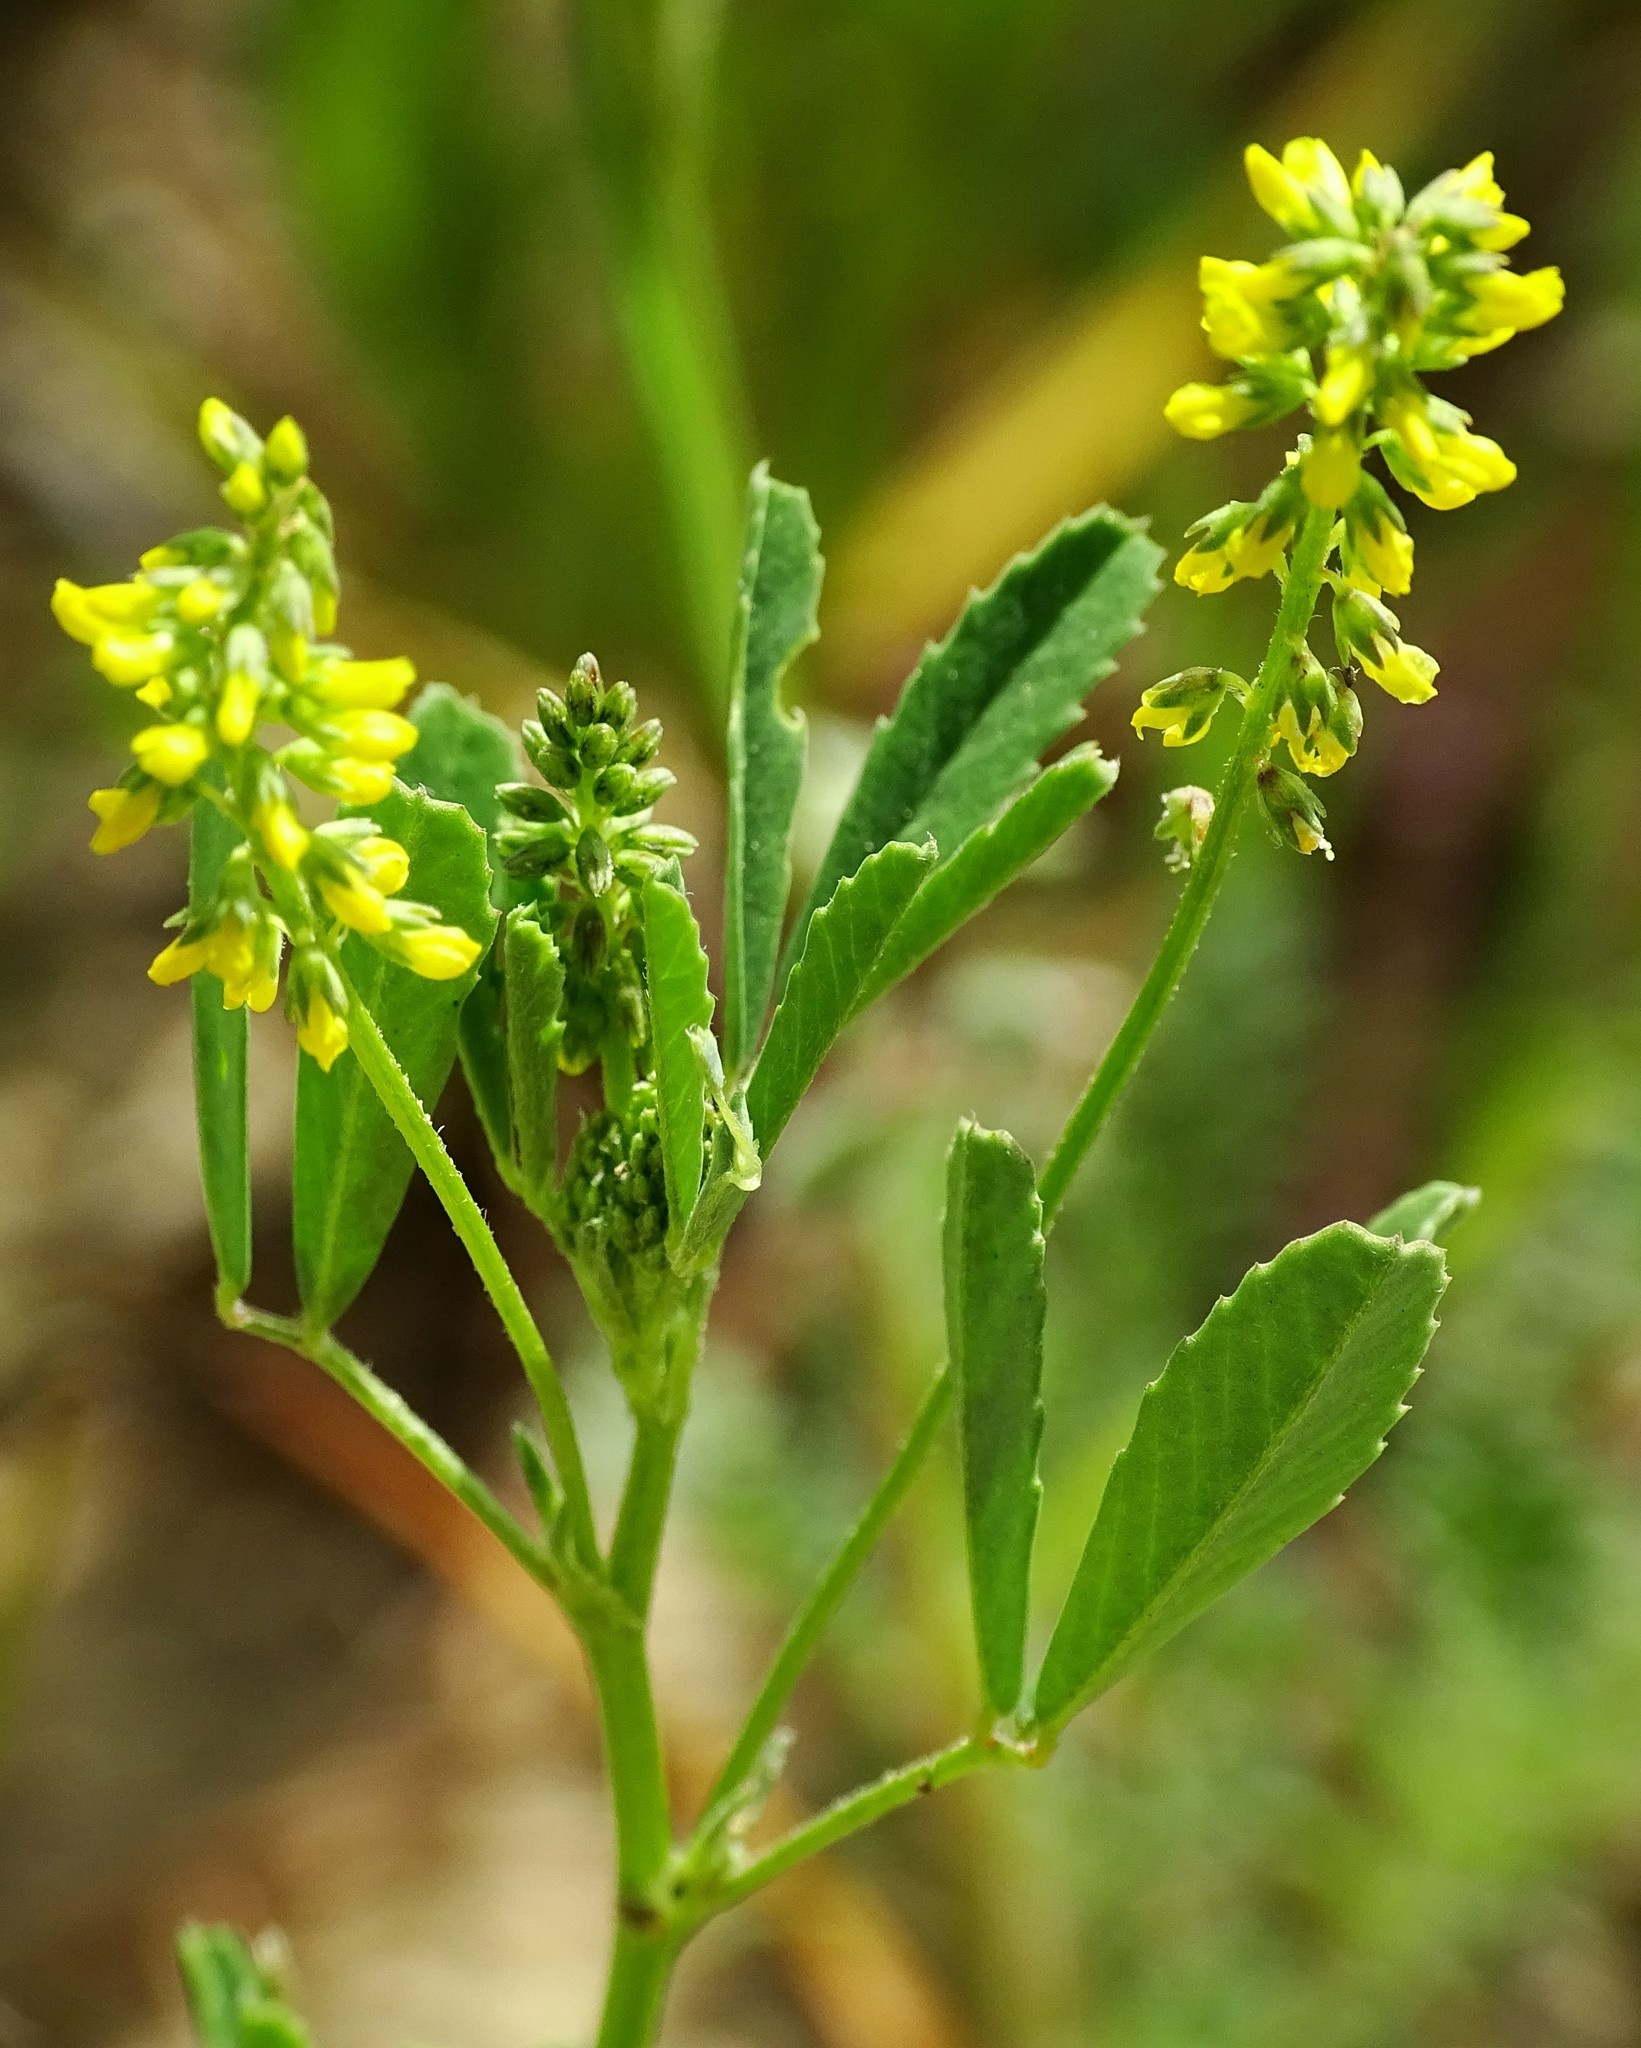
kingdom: Plantae
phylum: Tracheophyta
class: Magnoliopsida
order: Fabales
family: Fabaceae
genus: Melilotus
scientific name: Melilotus indicus
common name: Small melilot
